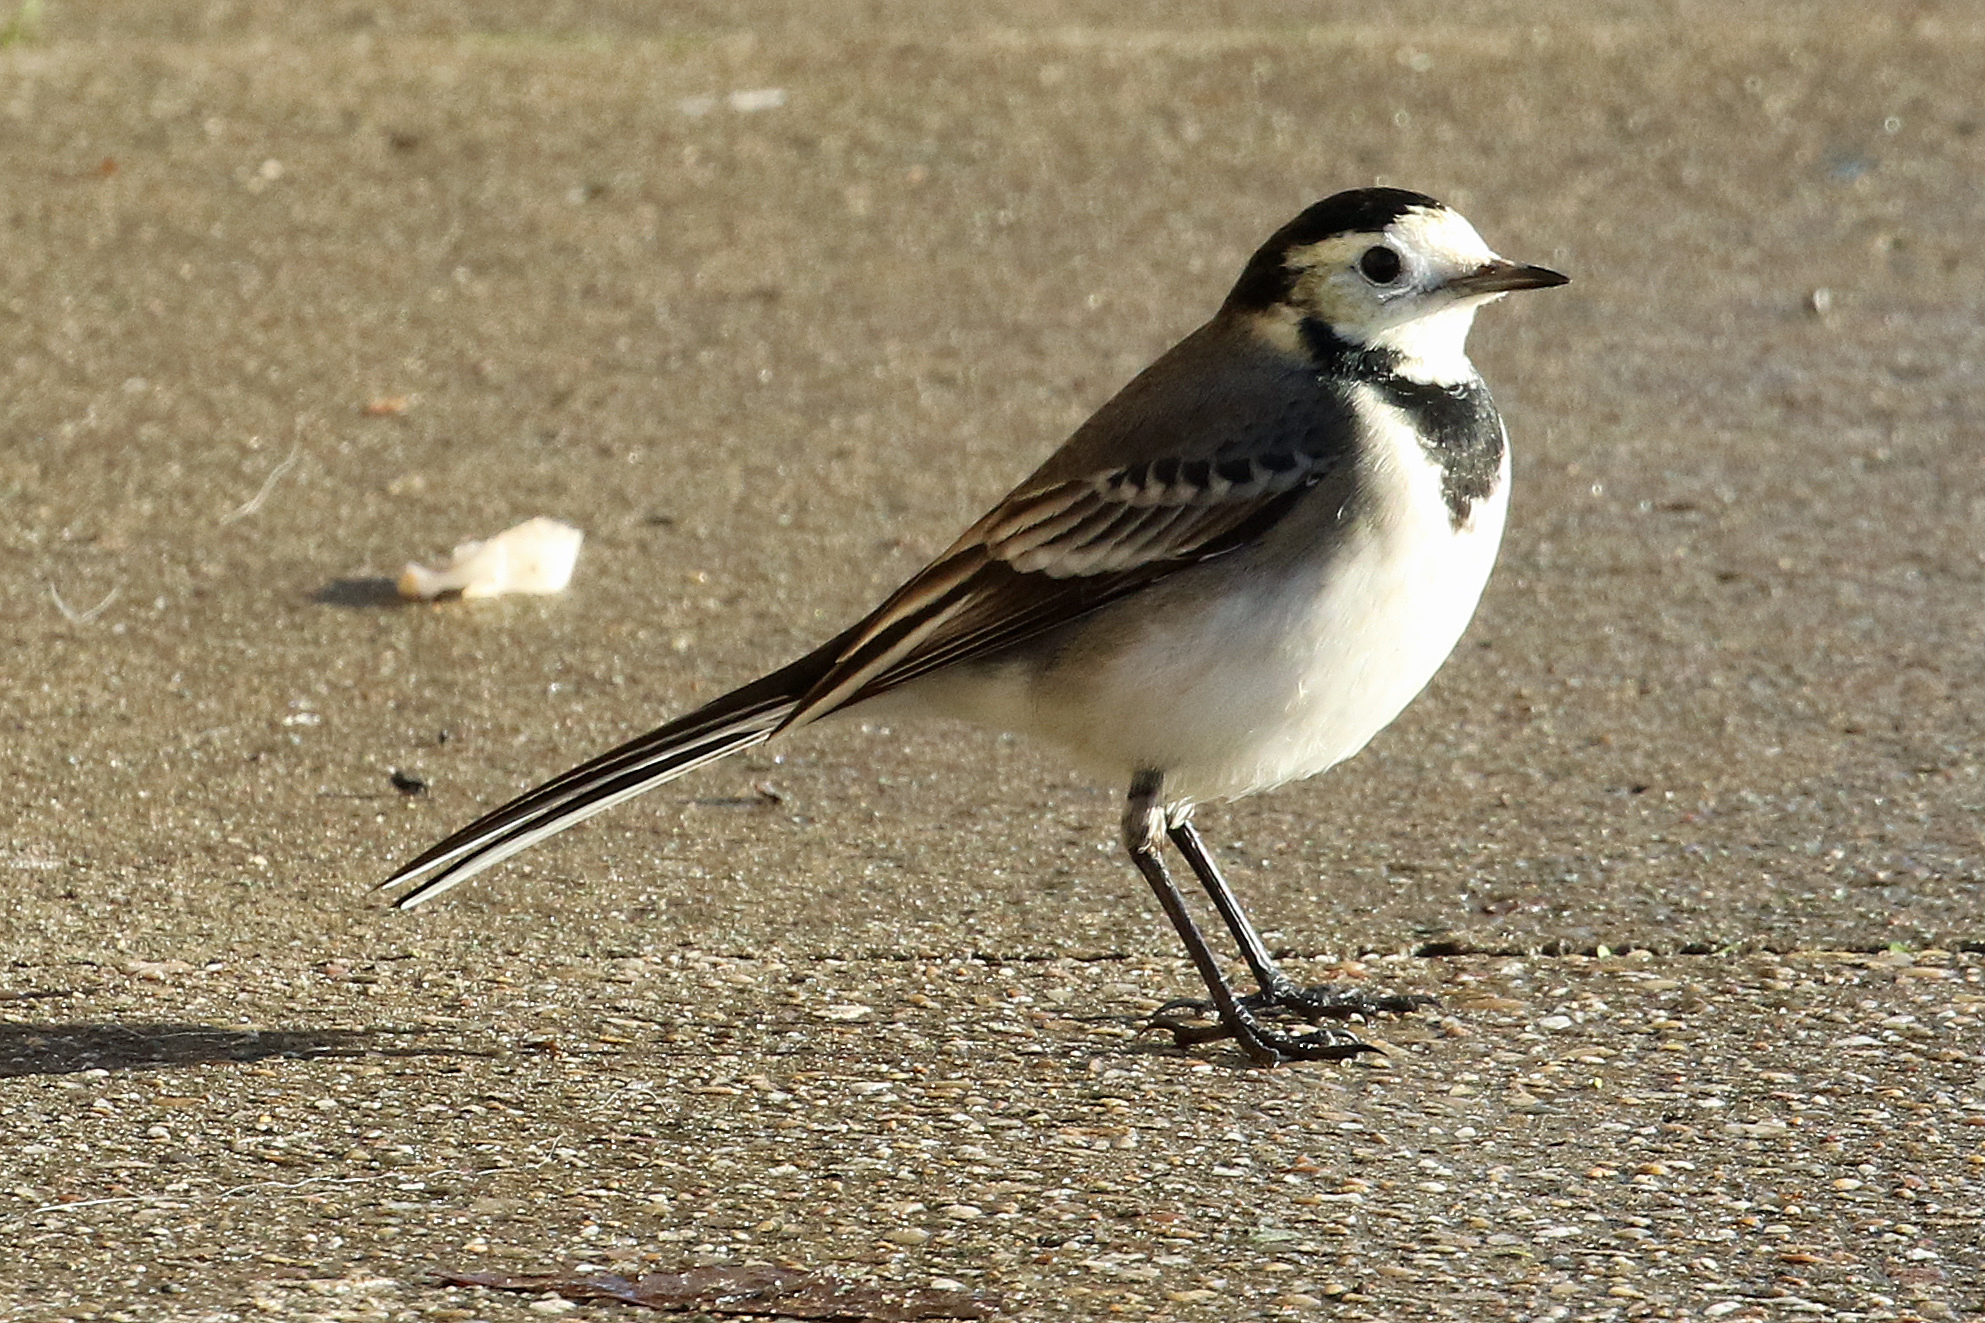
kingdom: Animalia
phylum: Chordata
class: Aves
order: Passeriformes
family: Motacillidae
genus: Motacilla
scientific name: Motacilla alba
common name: White wagtail
